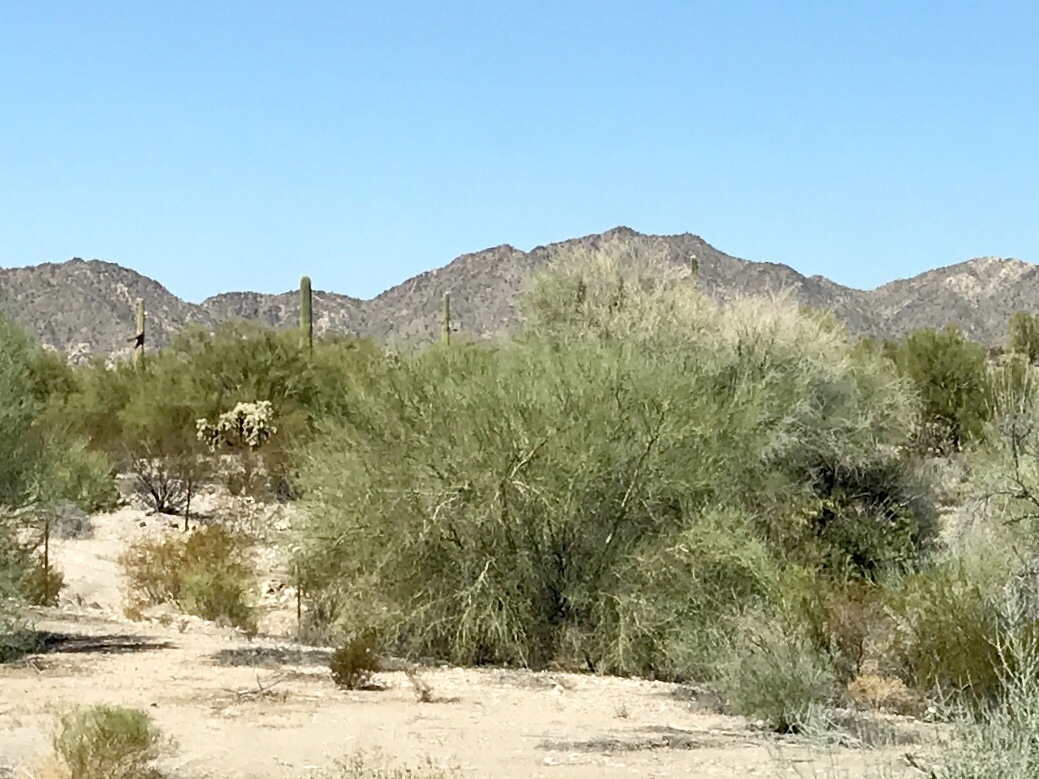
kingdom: Plantae
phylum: Tracheophyta
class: Magnoliopsida
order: Fabales
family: Fabaceae
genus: Parkinsonia
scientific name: Parkinsonia florida
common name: Blue paloverde
